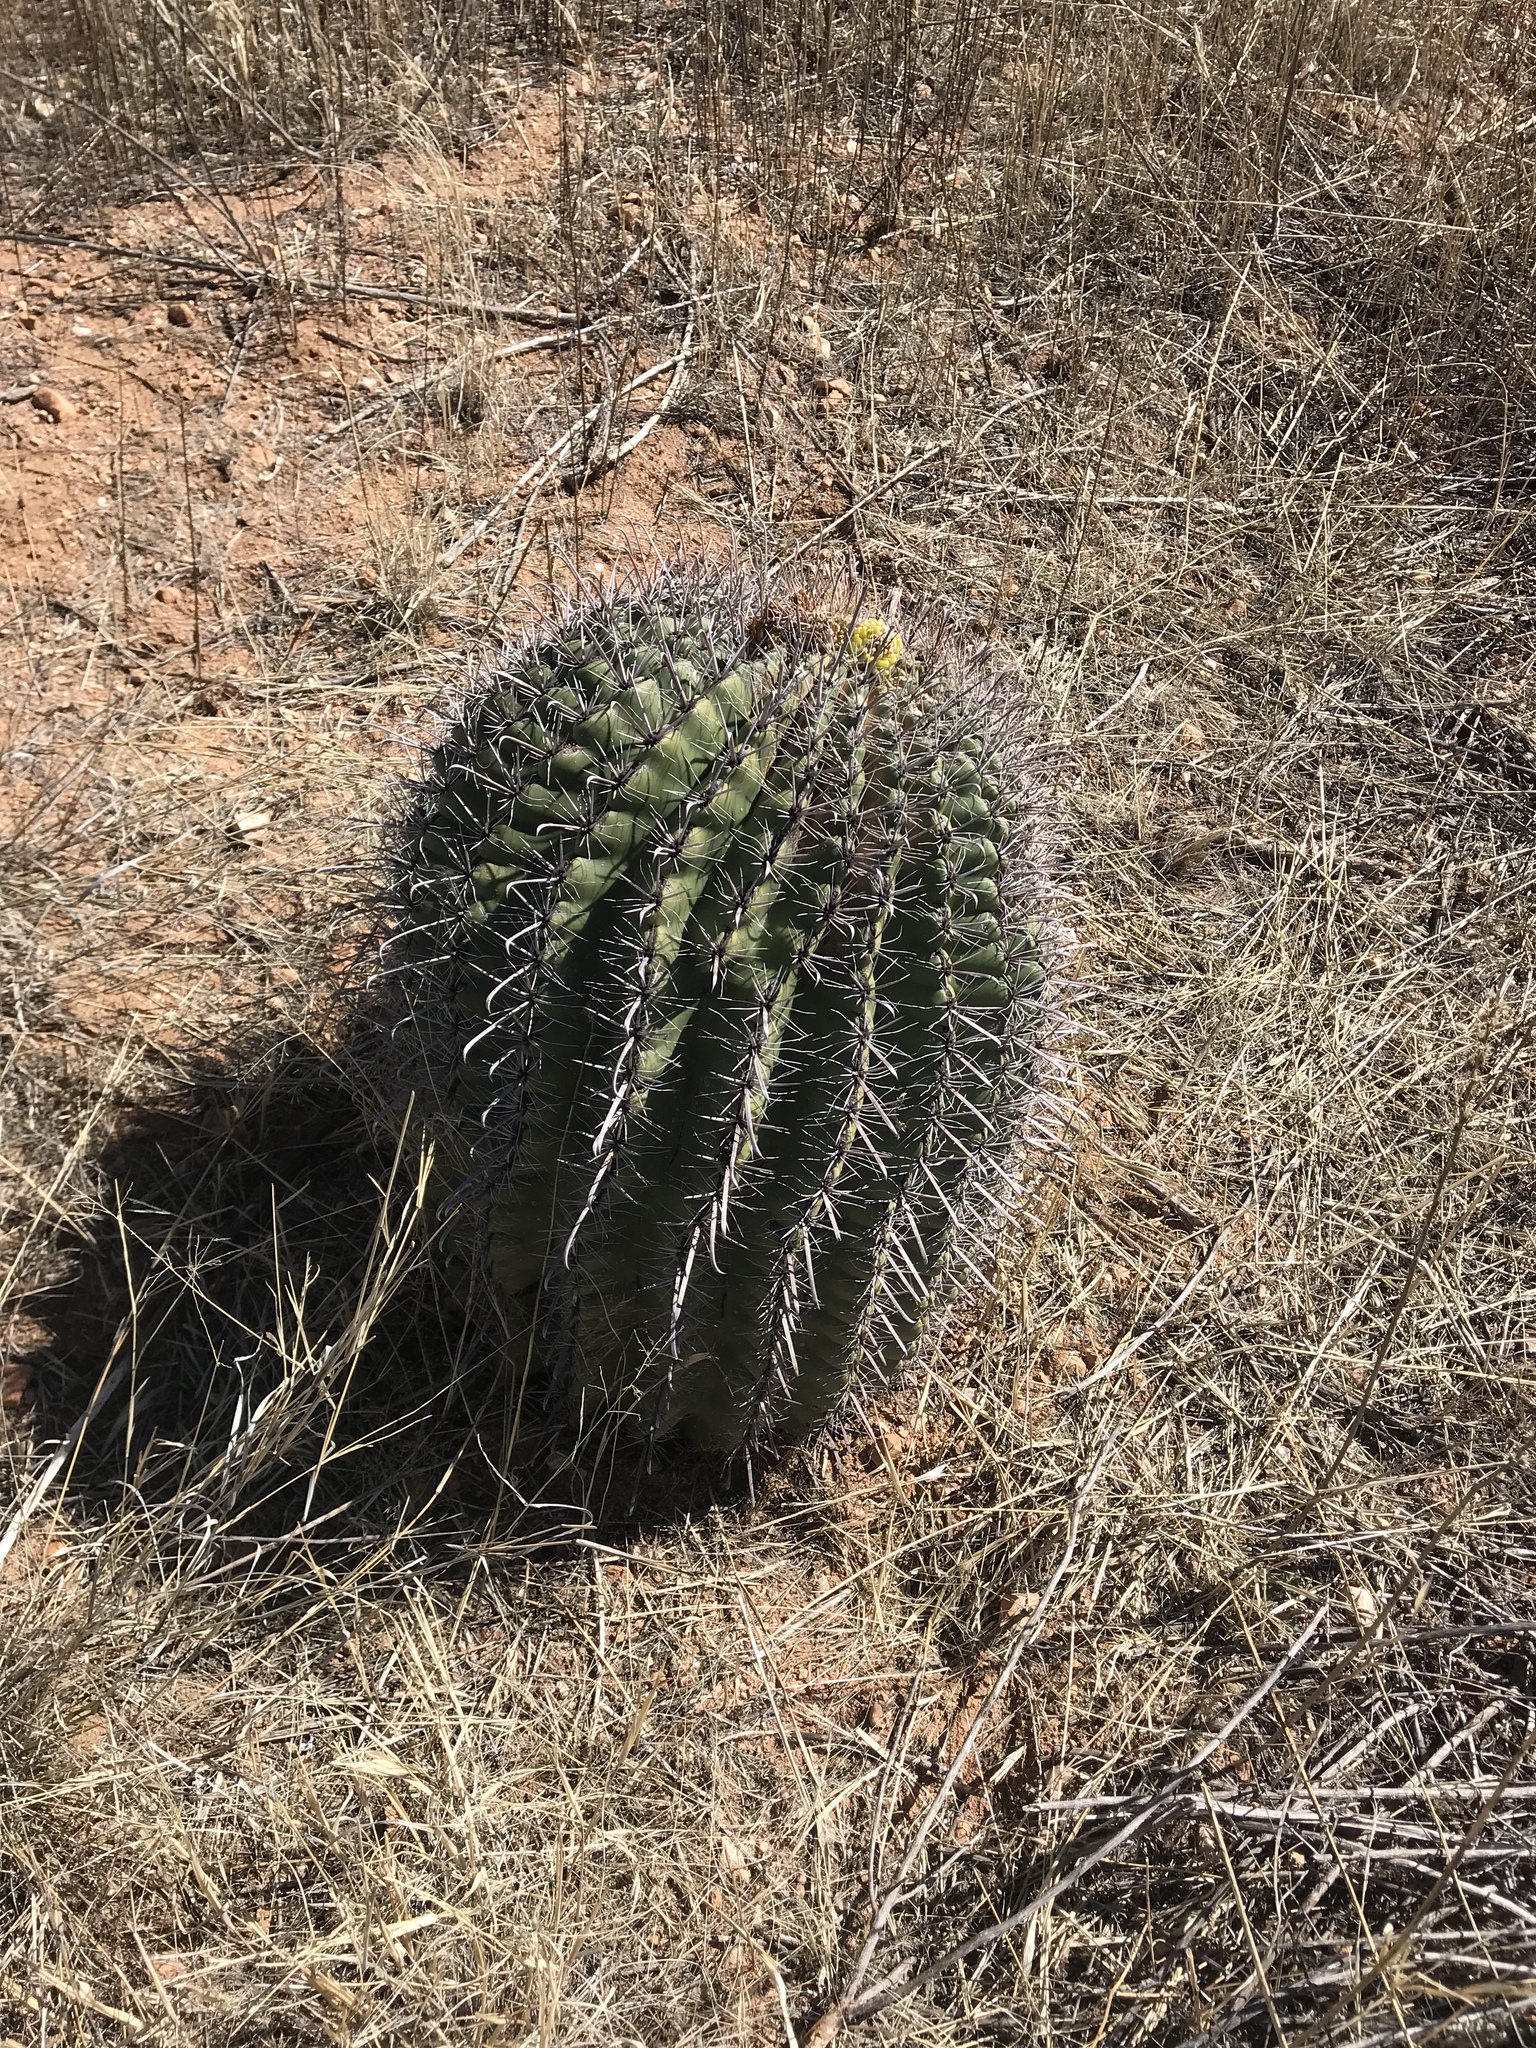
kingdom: Plantae
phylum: Tracheophyta
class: Magnoliopsida
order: Caryophyllales
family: Cactaceae
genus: Ferocactus
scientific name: Ferocactus wislizeni
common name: Candy barrel cactus
